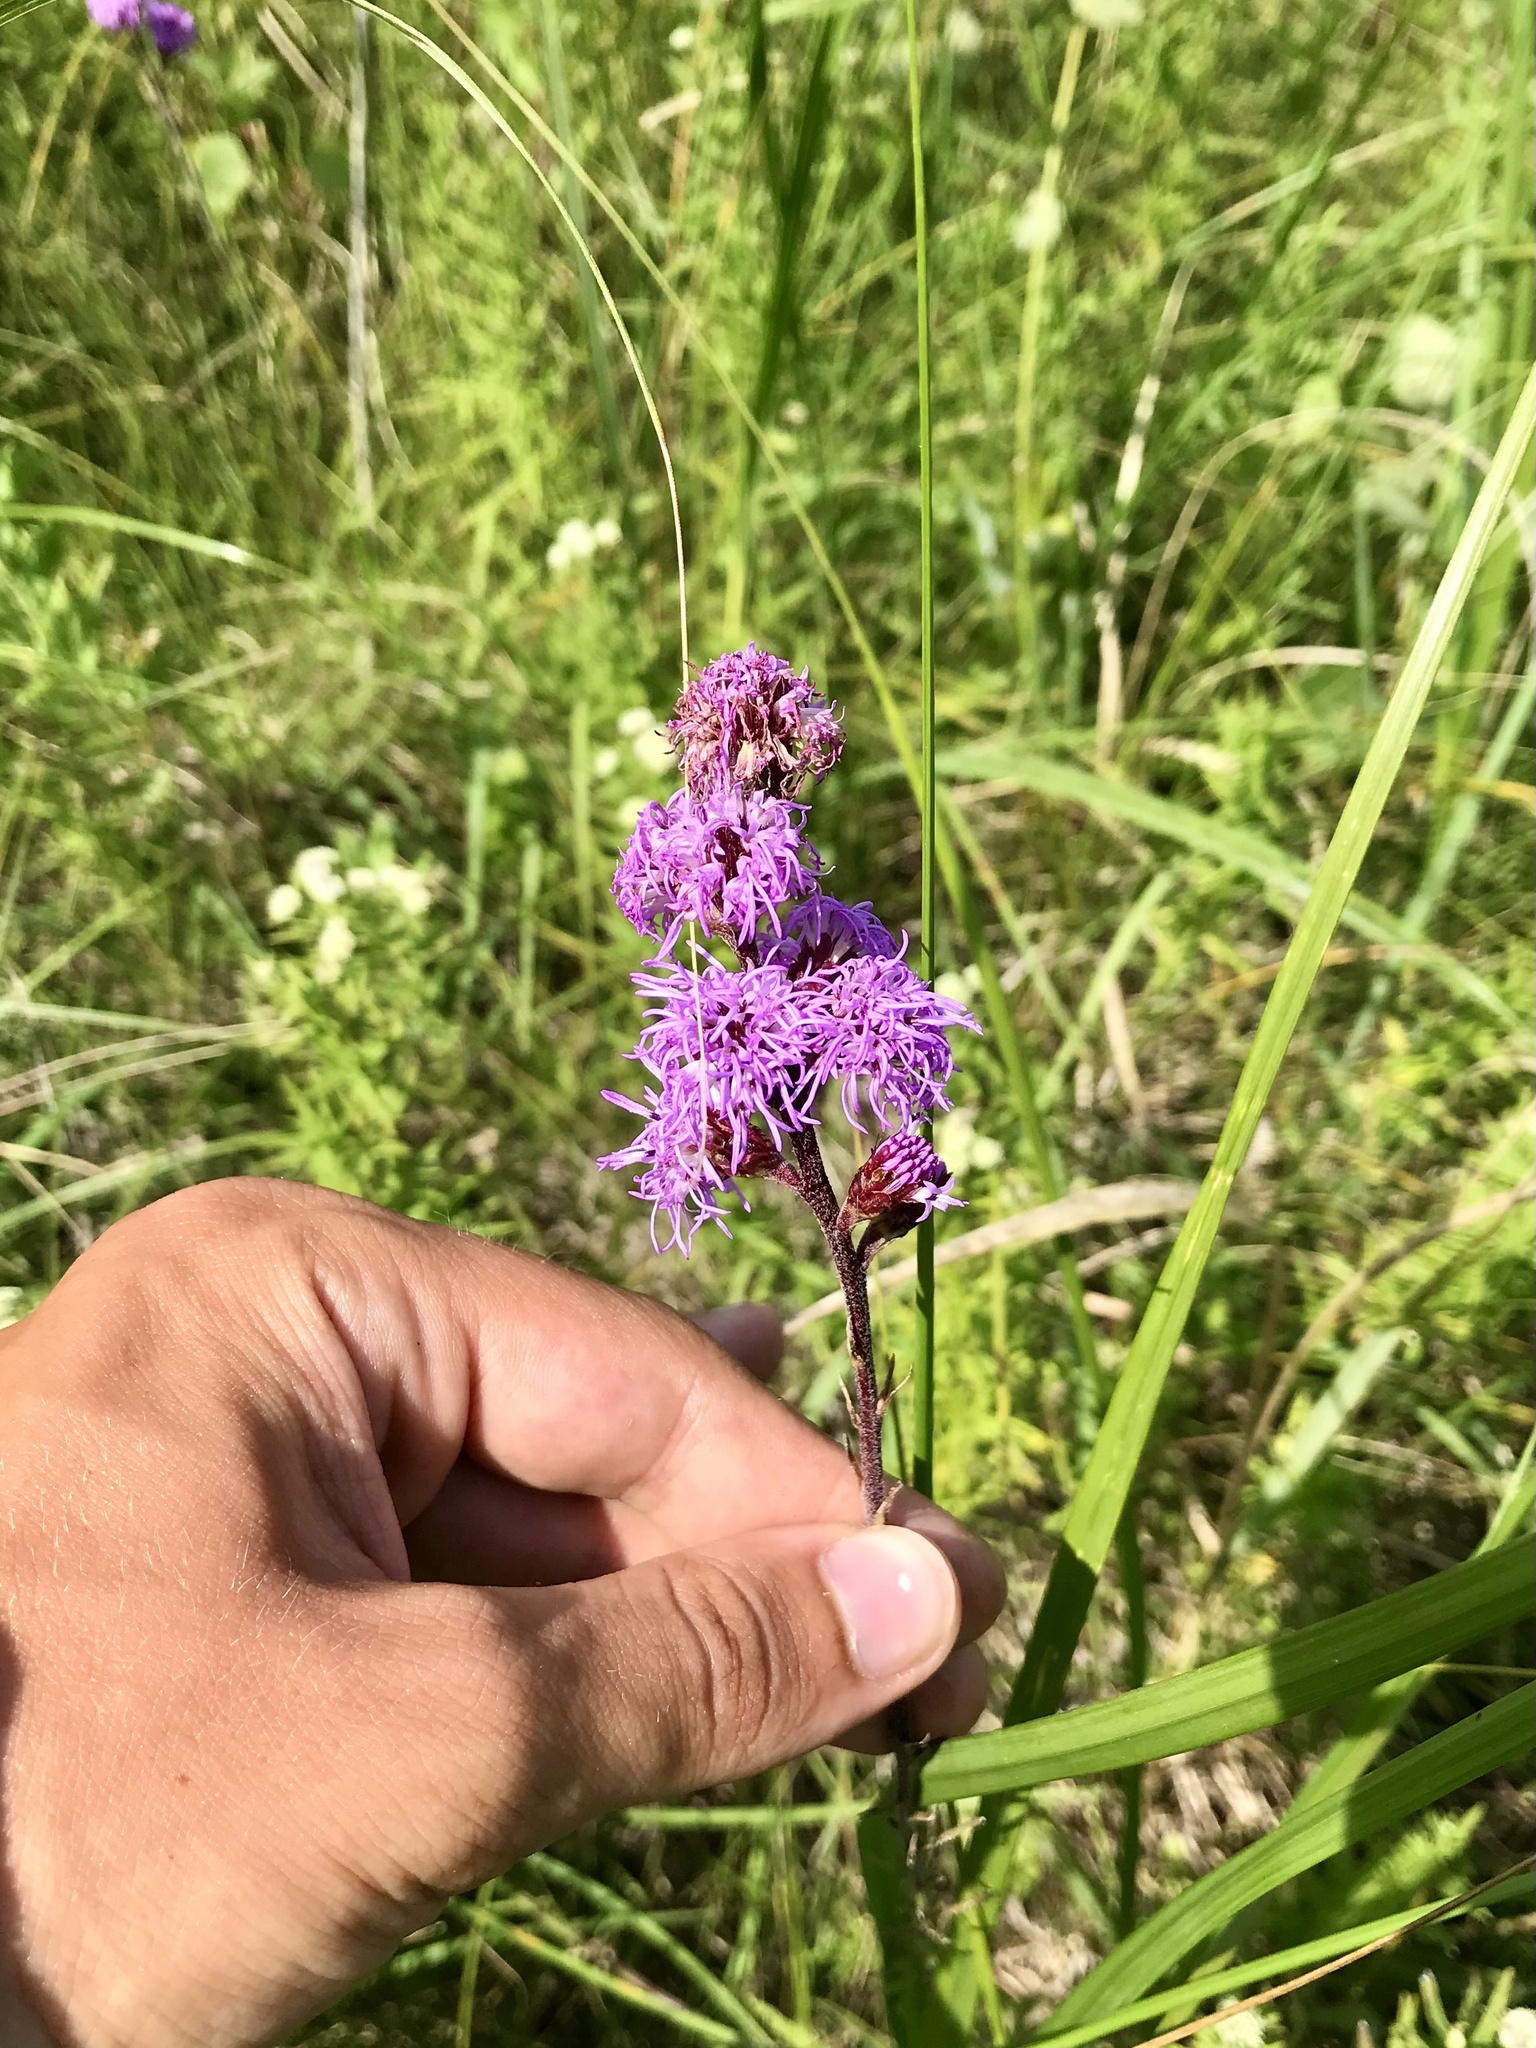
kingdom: Plantae
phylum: Tracheophyta
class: Magnoliopsida
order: Asterales
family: Asteraceae
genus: Liatris
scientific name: Liatris ligulistylis
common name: Northern plains gayfeather
